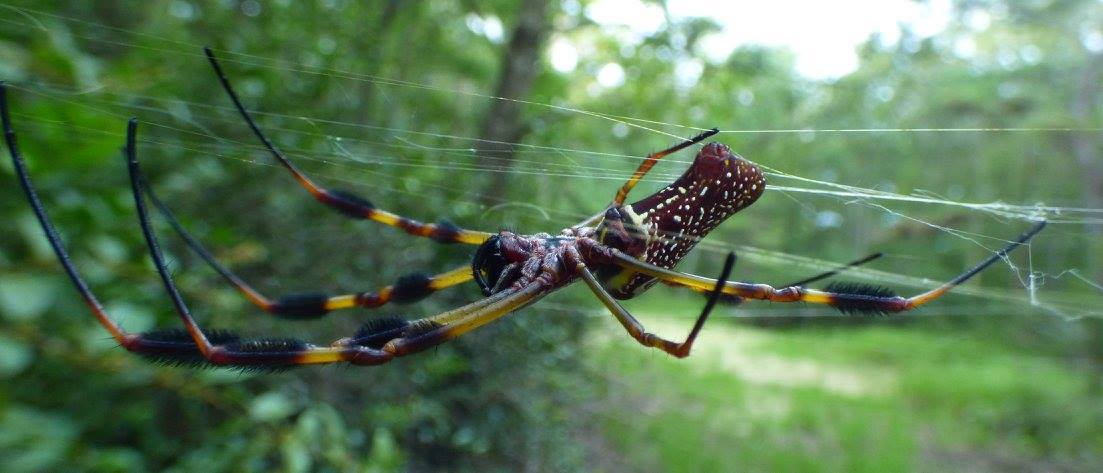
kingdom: Animalia
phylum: Arthropoda
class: Arachnida
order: Araneae
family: Araneidae
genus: Trichonephila
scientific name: Trichonephila clavipes
